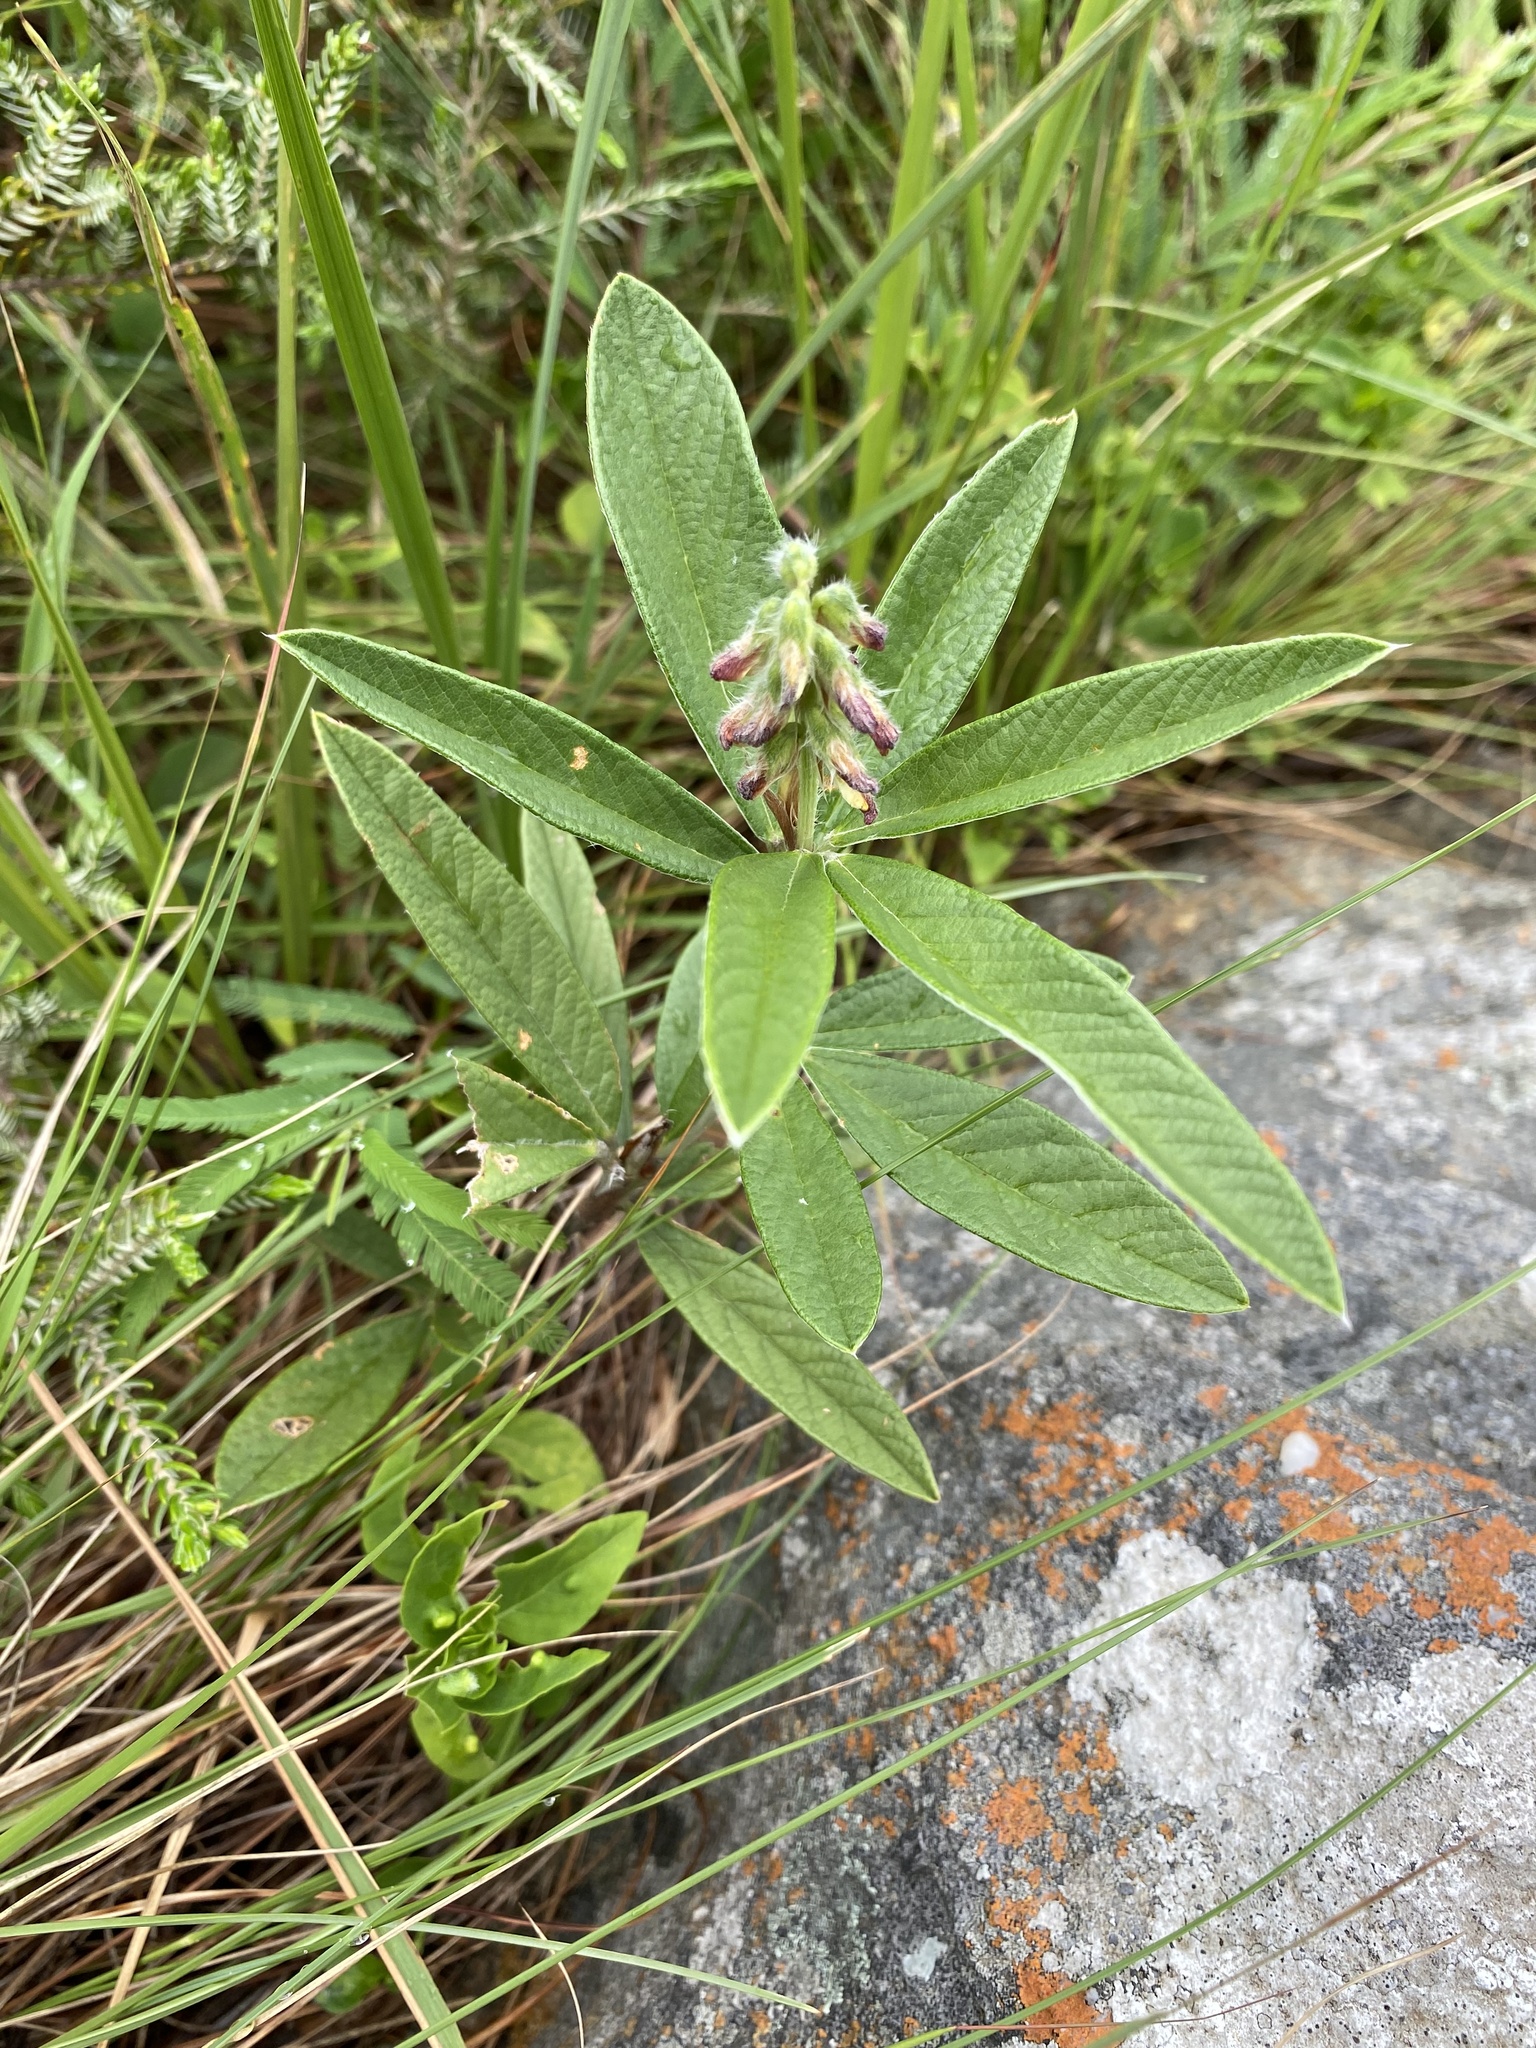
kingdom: Plantae
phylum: Tracheophyta
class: Magnoliopsida
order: Fabales
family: Fabaceae
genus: Eriosema
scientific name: Eriosema salignum
